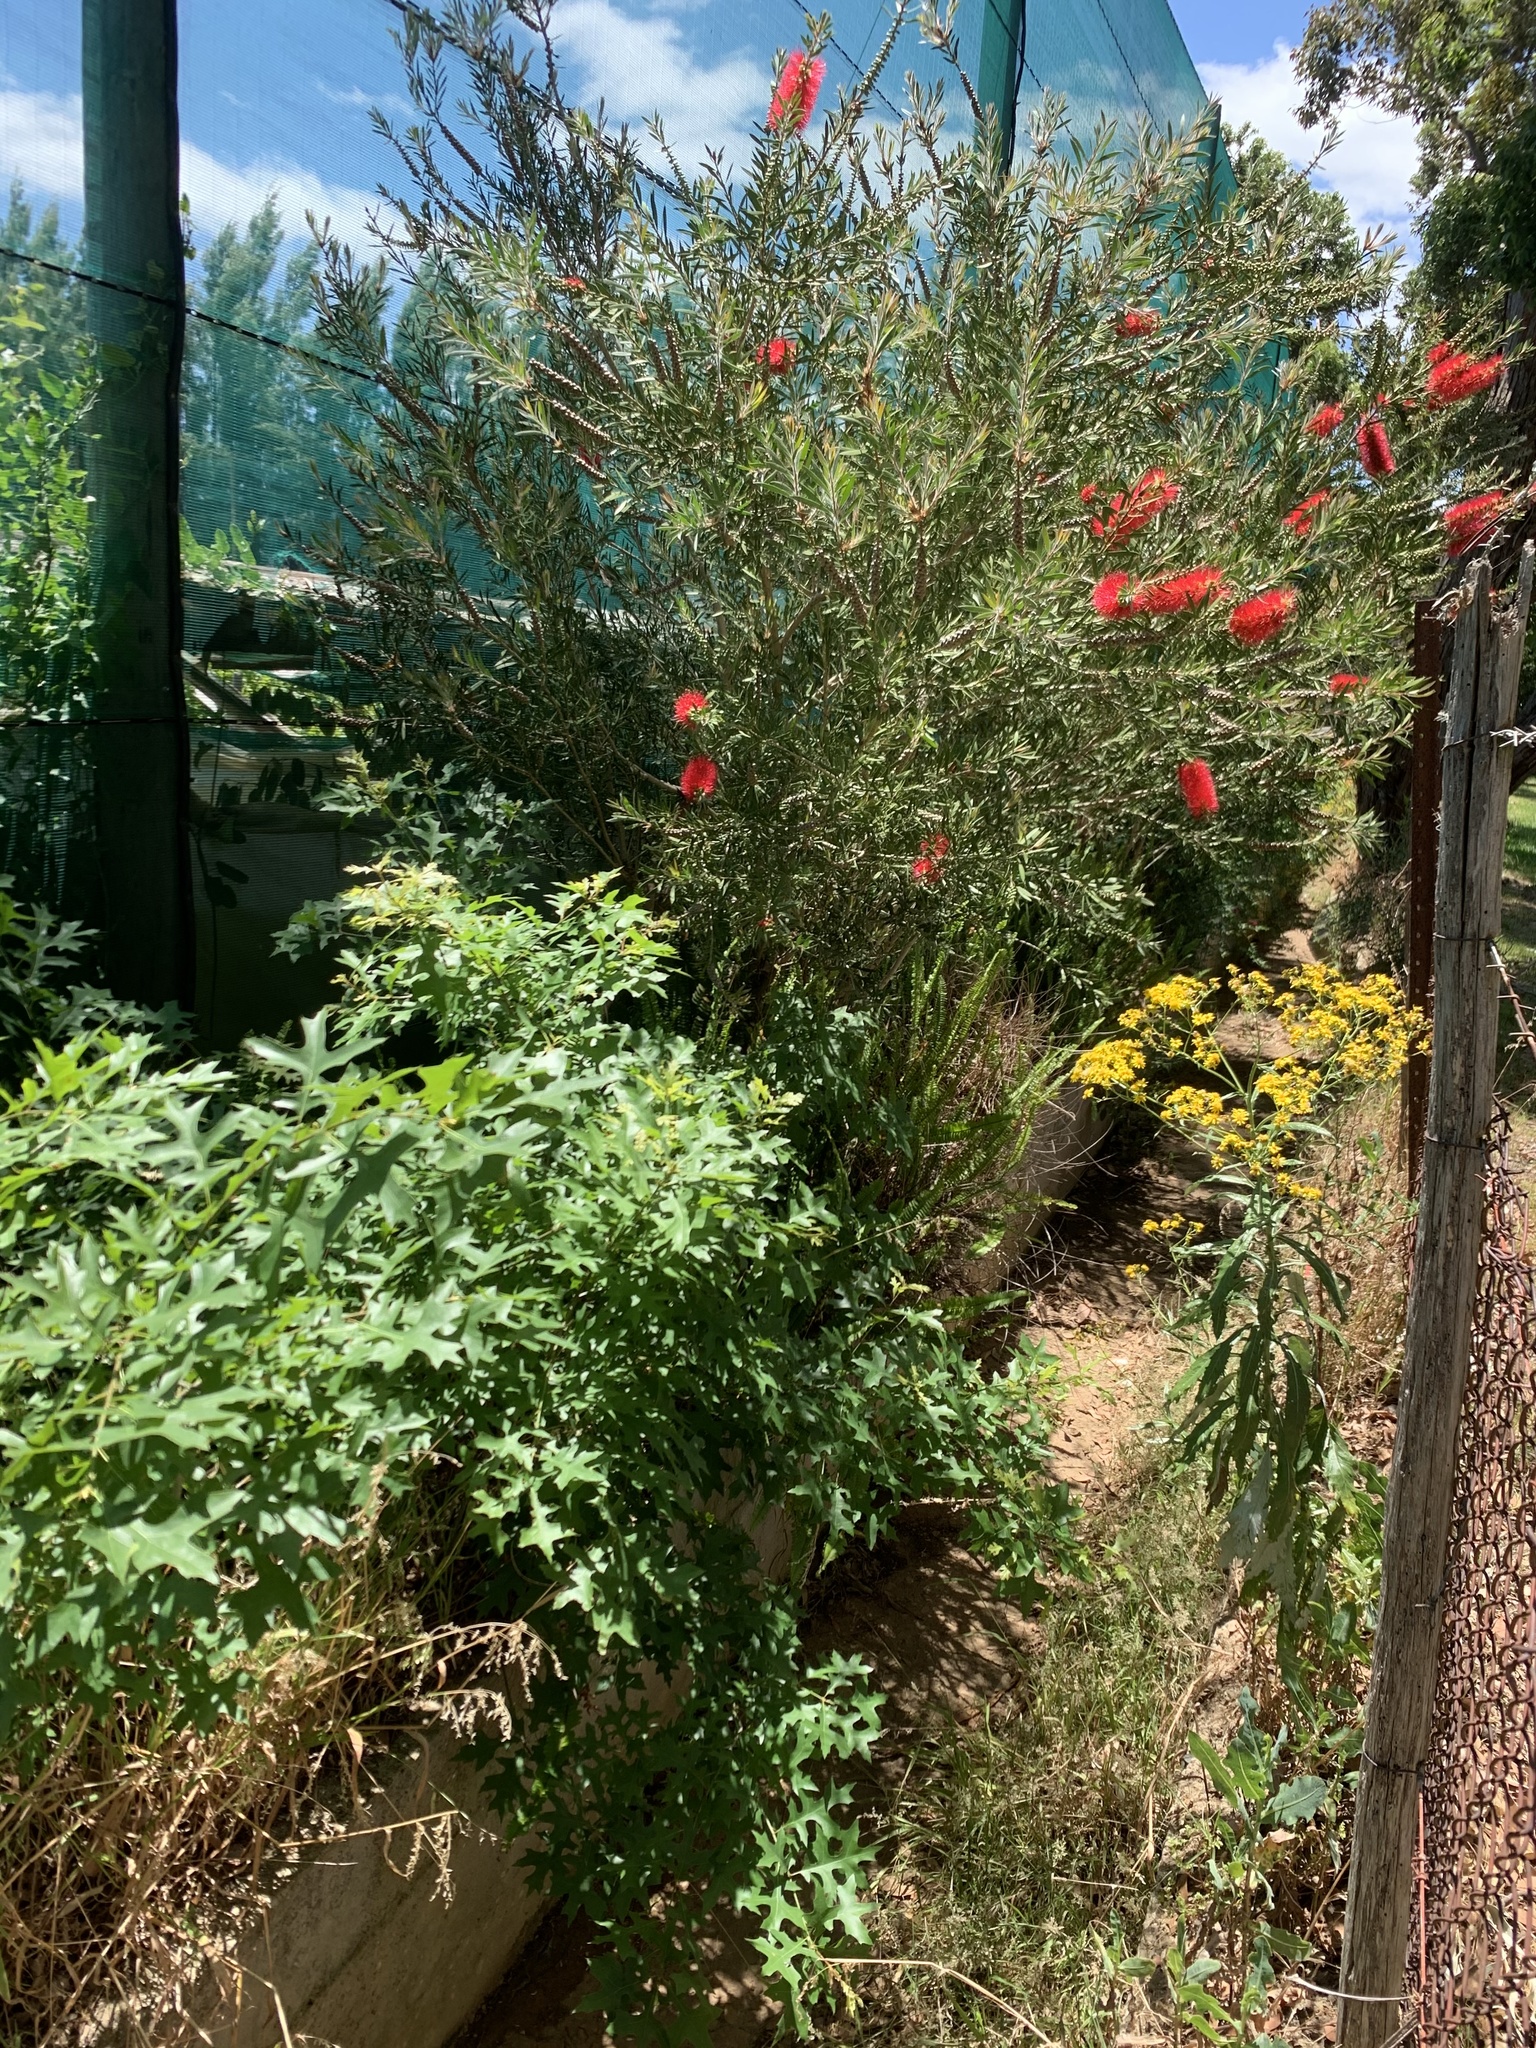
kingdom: Plantae
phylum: Tracheophyta
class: Magnoliopsida
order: Myrtales
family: Myrtaceae
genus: Callistemon
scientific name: Callistemon viminalis
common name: Drooping bottlebrush
